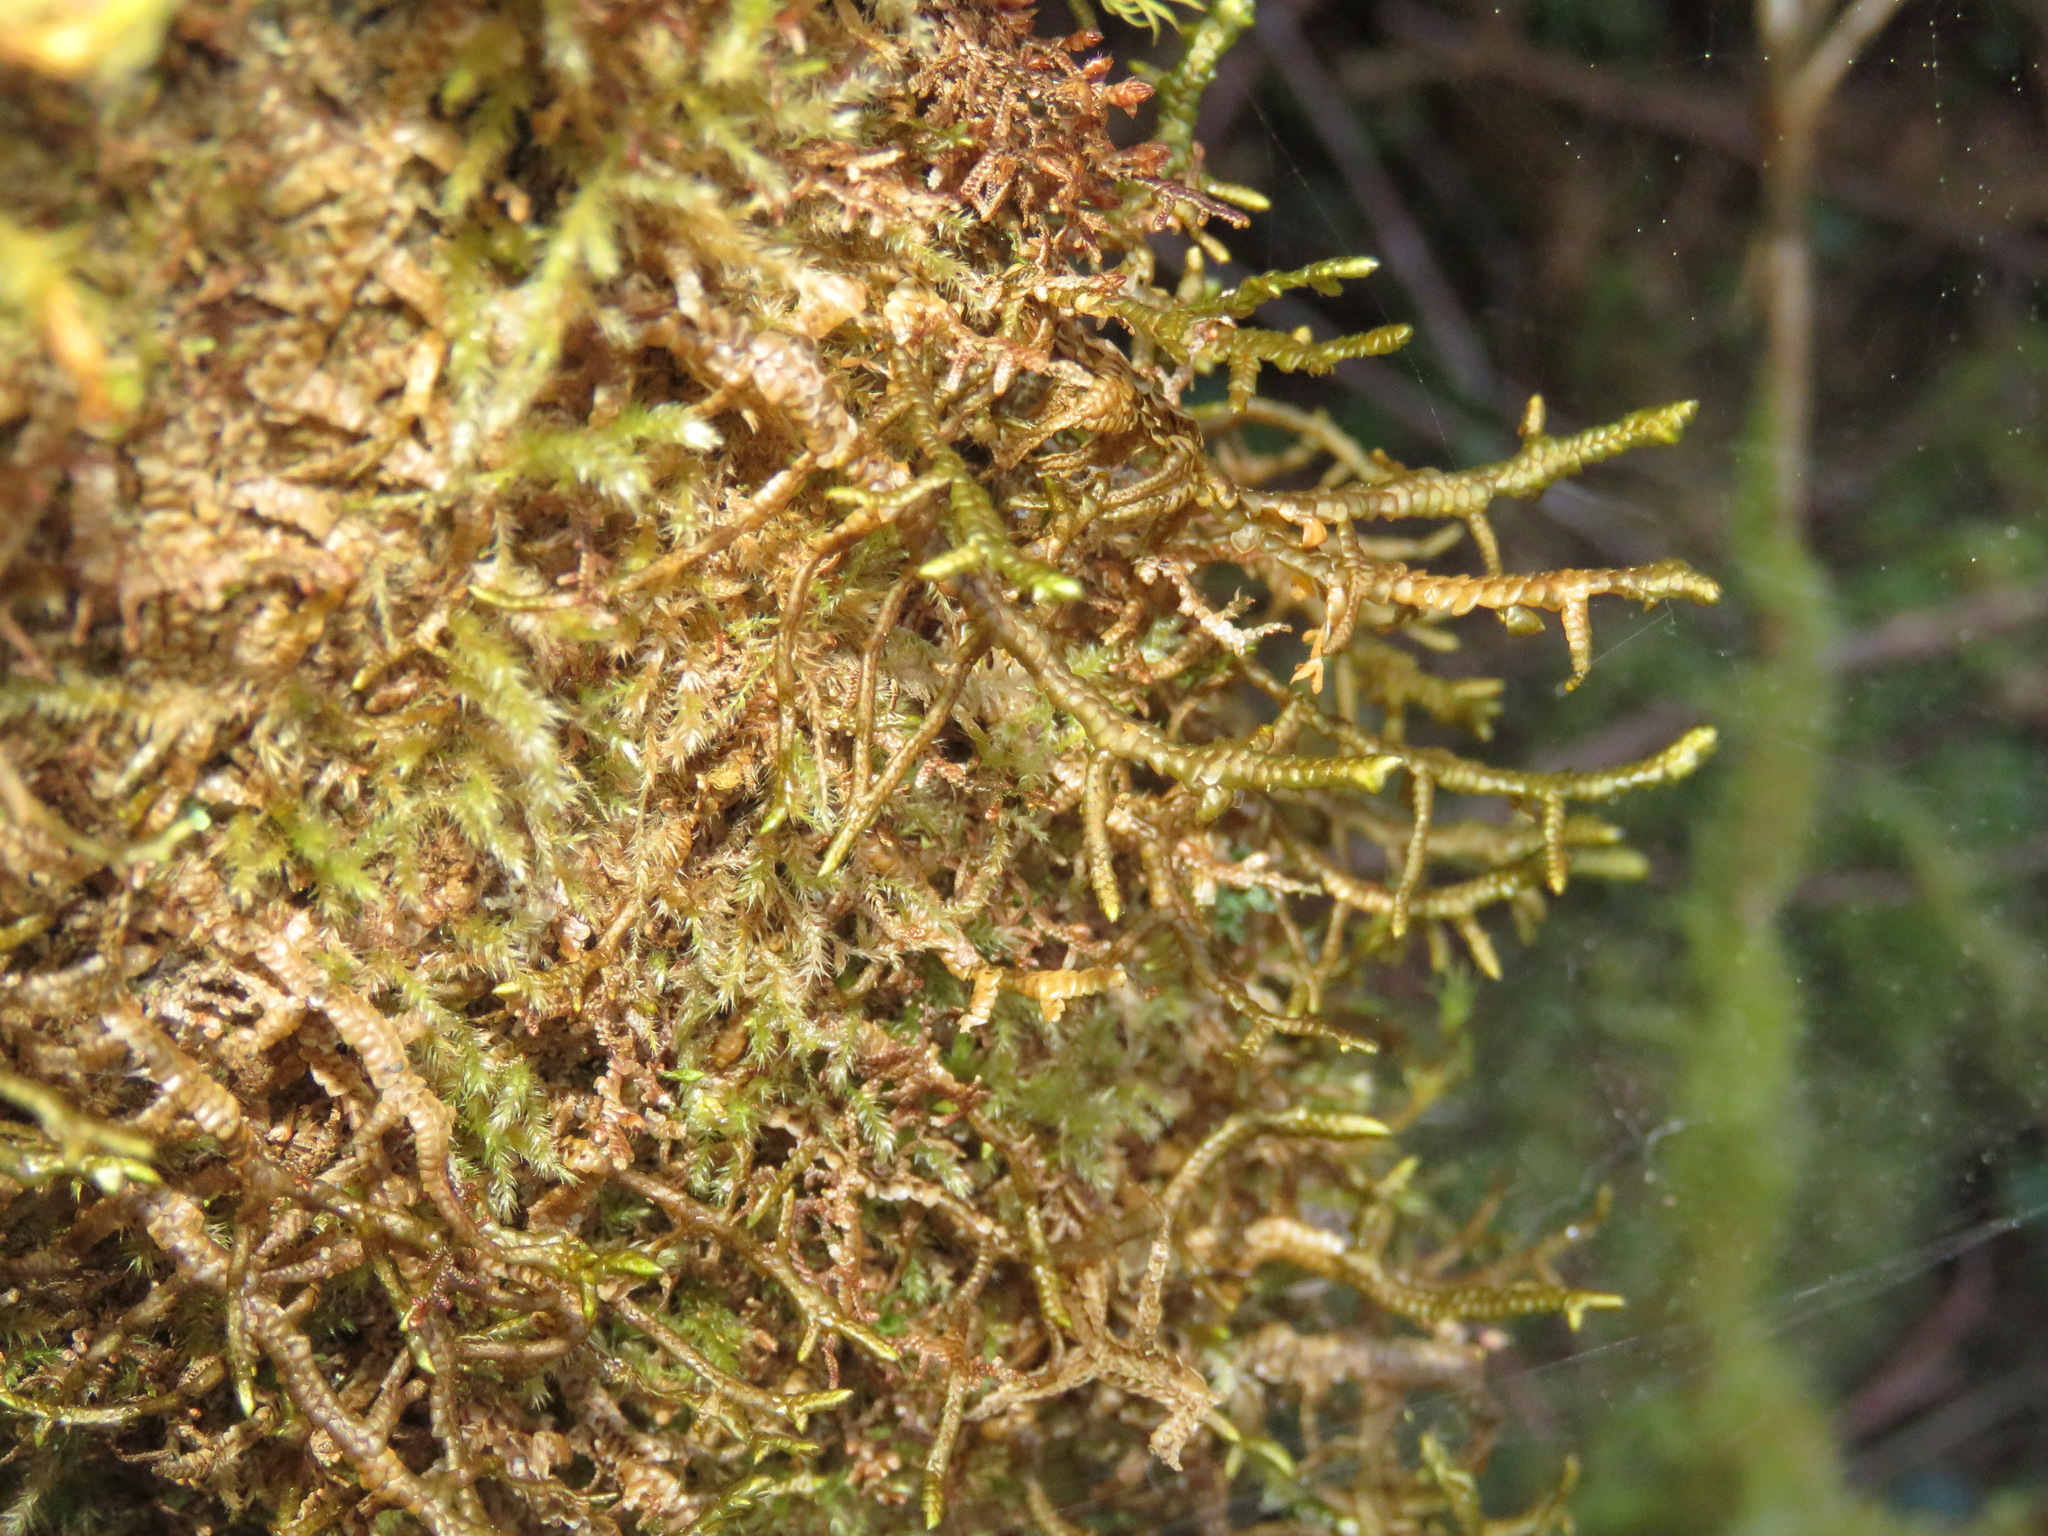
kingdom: Plantae
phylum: Marchantiophyta
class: Jungermanniopsida
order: Porellales
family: Porellaceae
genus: Porella
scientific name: Porella navicularis
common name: Tree ruffle liverwort
